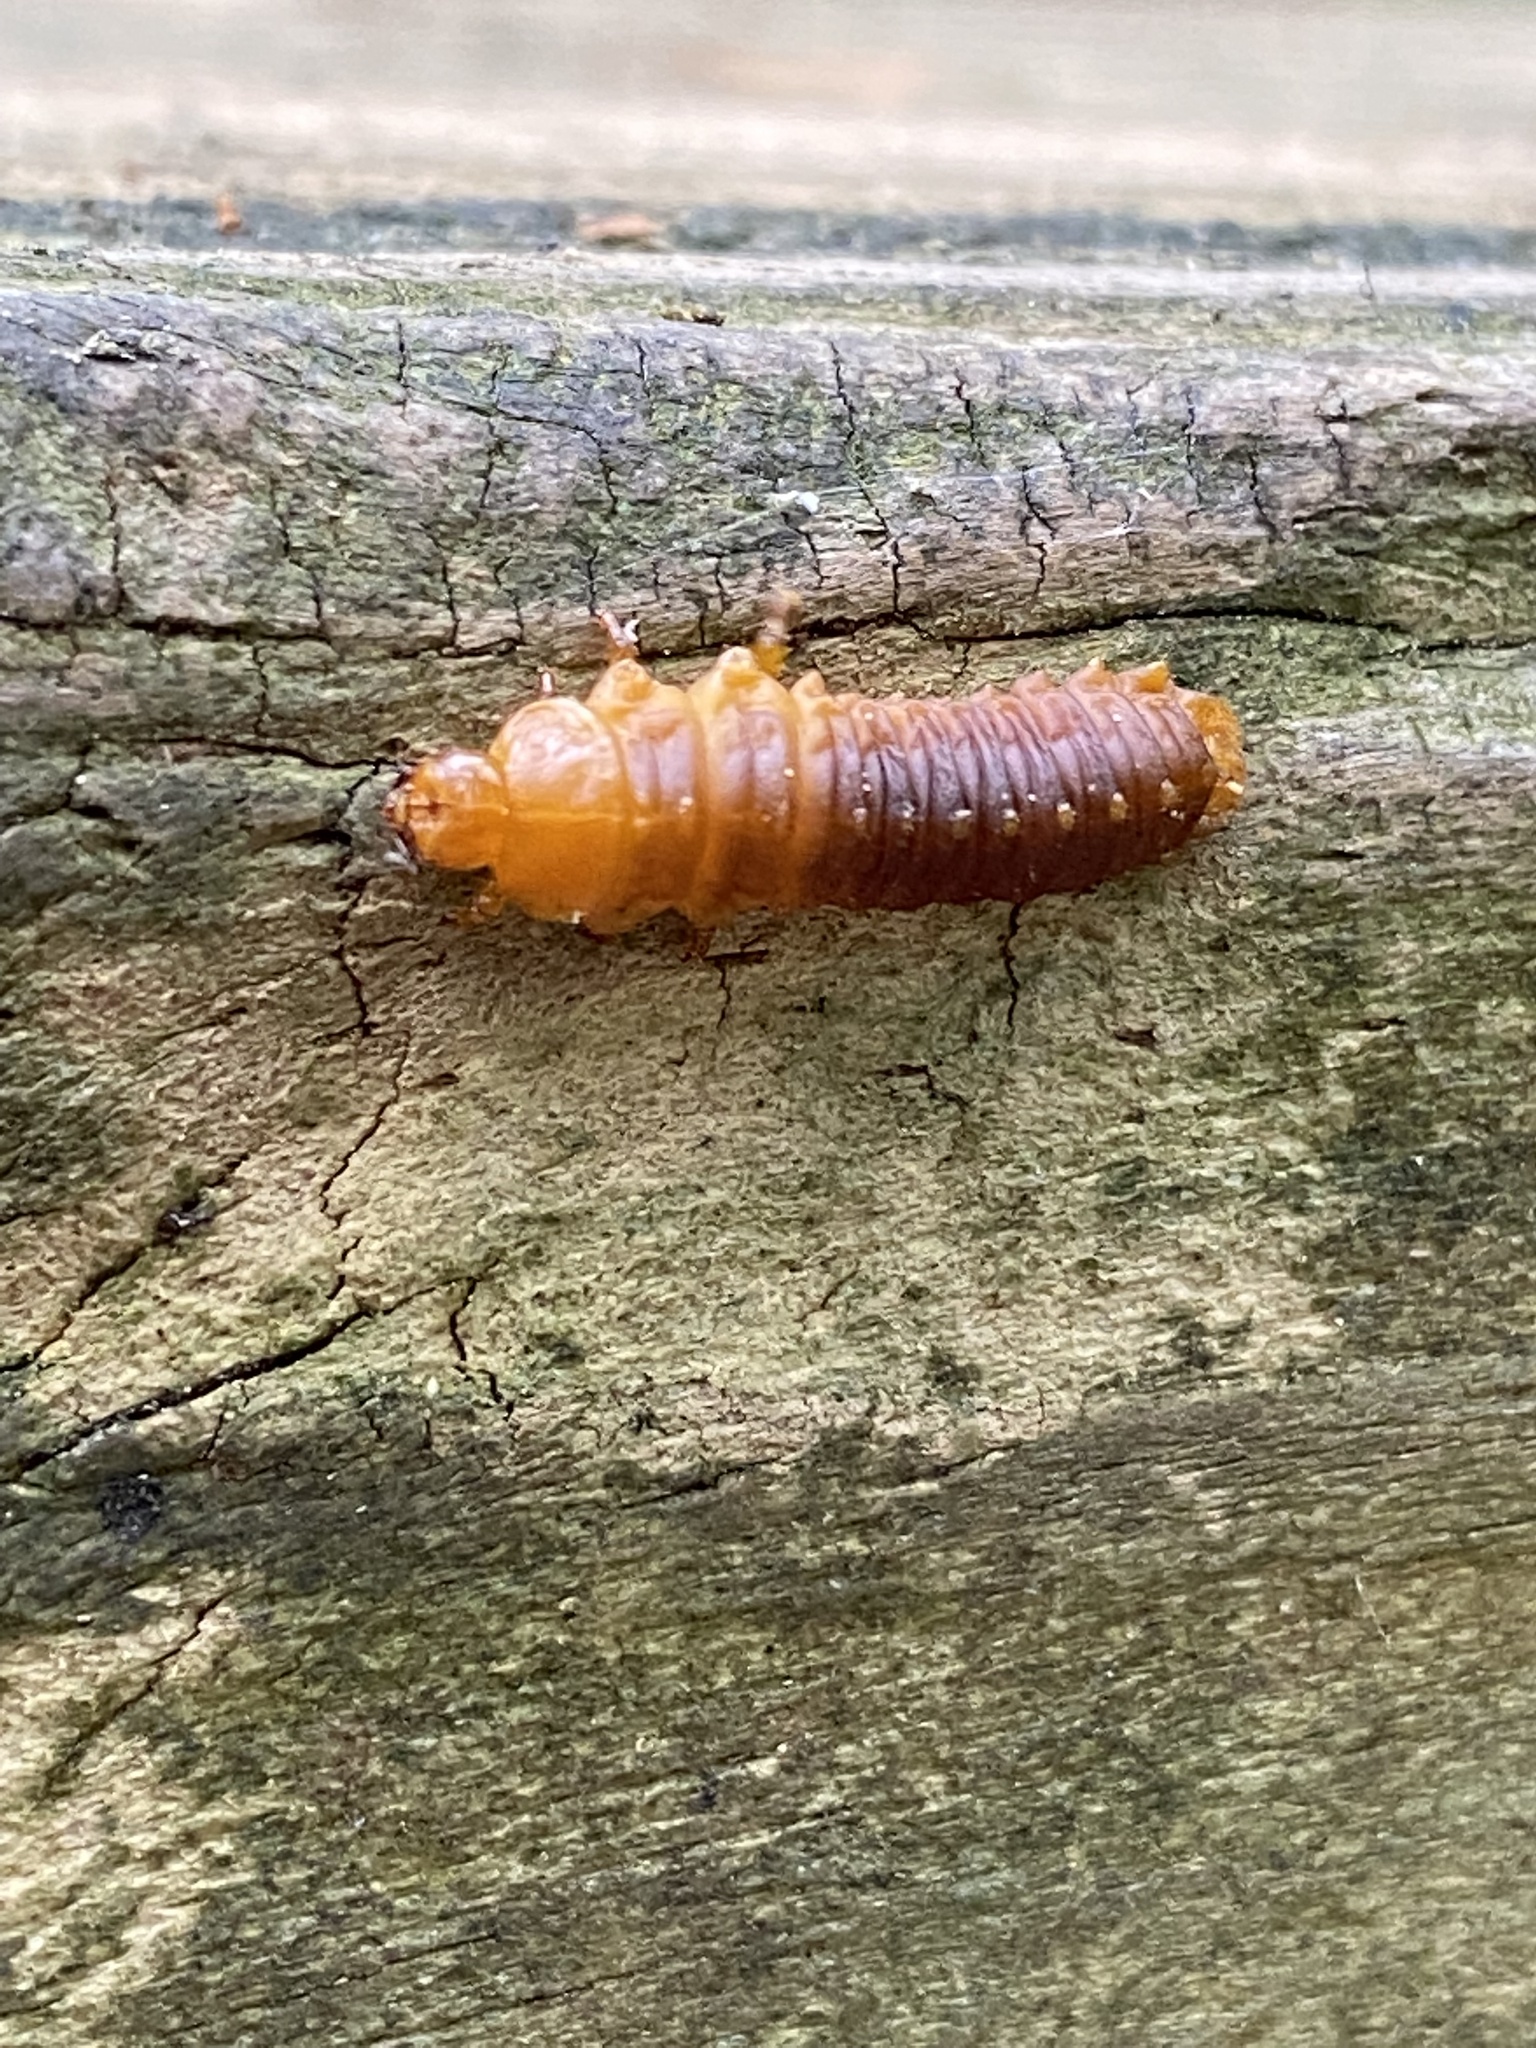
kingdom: Animalia
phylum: Arthropoda
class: Insecta
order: Coleoptera
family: Chrysomelidae
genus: Monocesta
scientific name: Monocesta coryli
